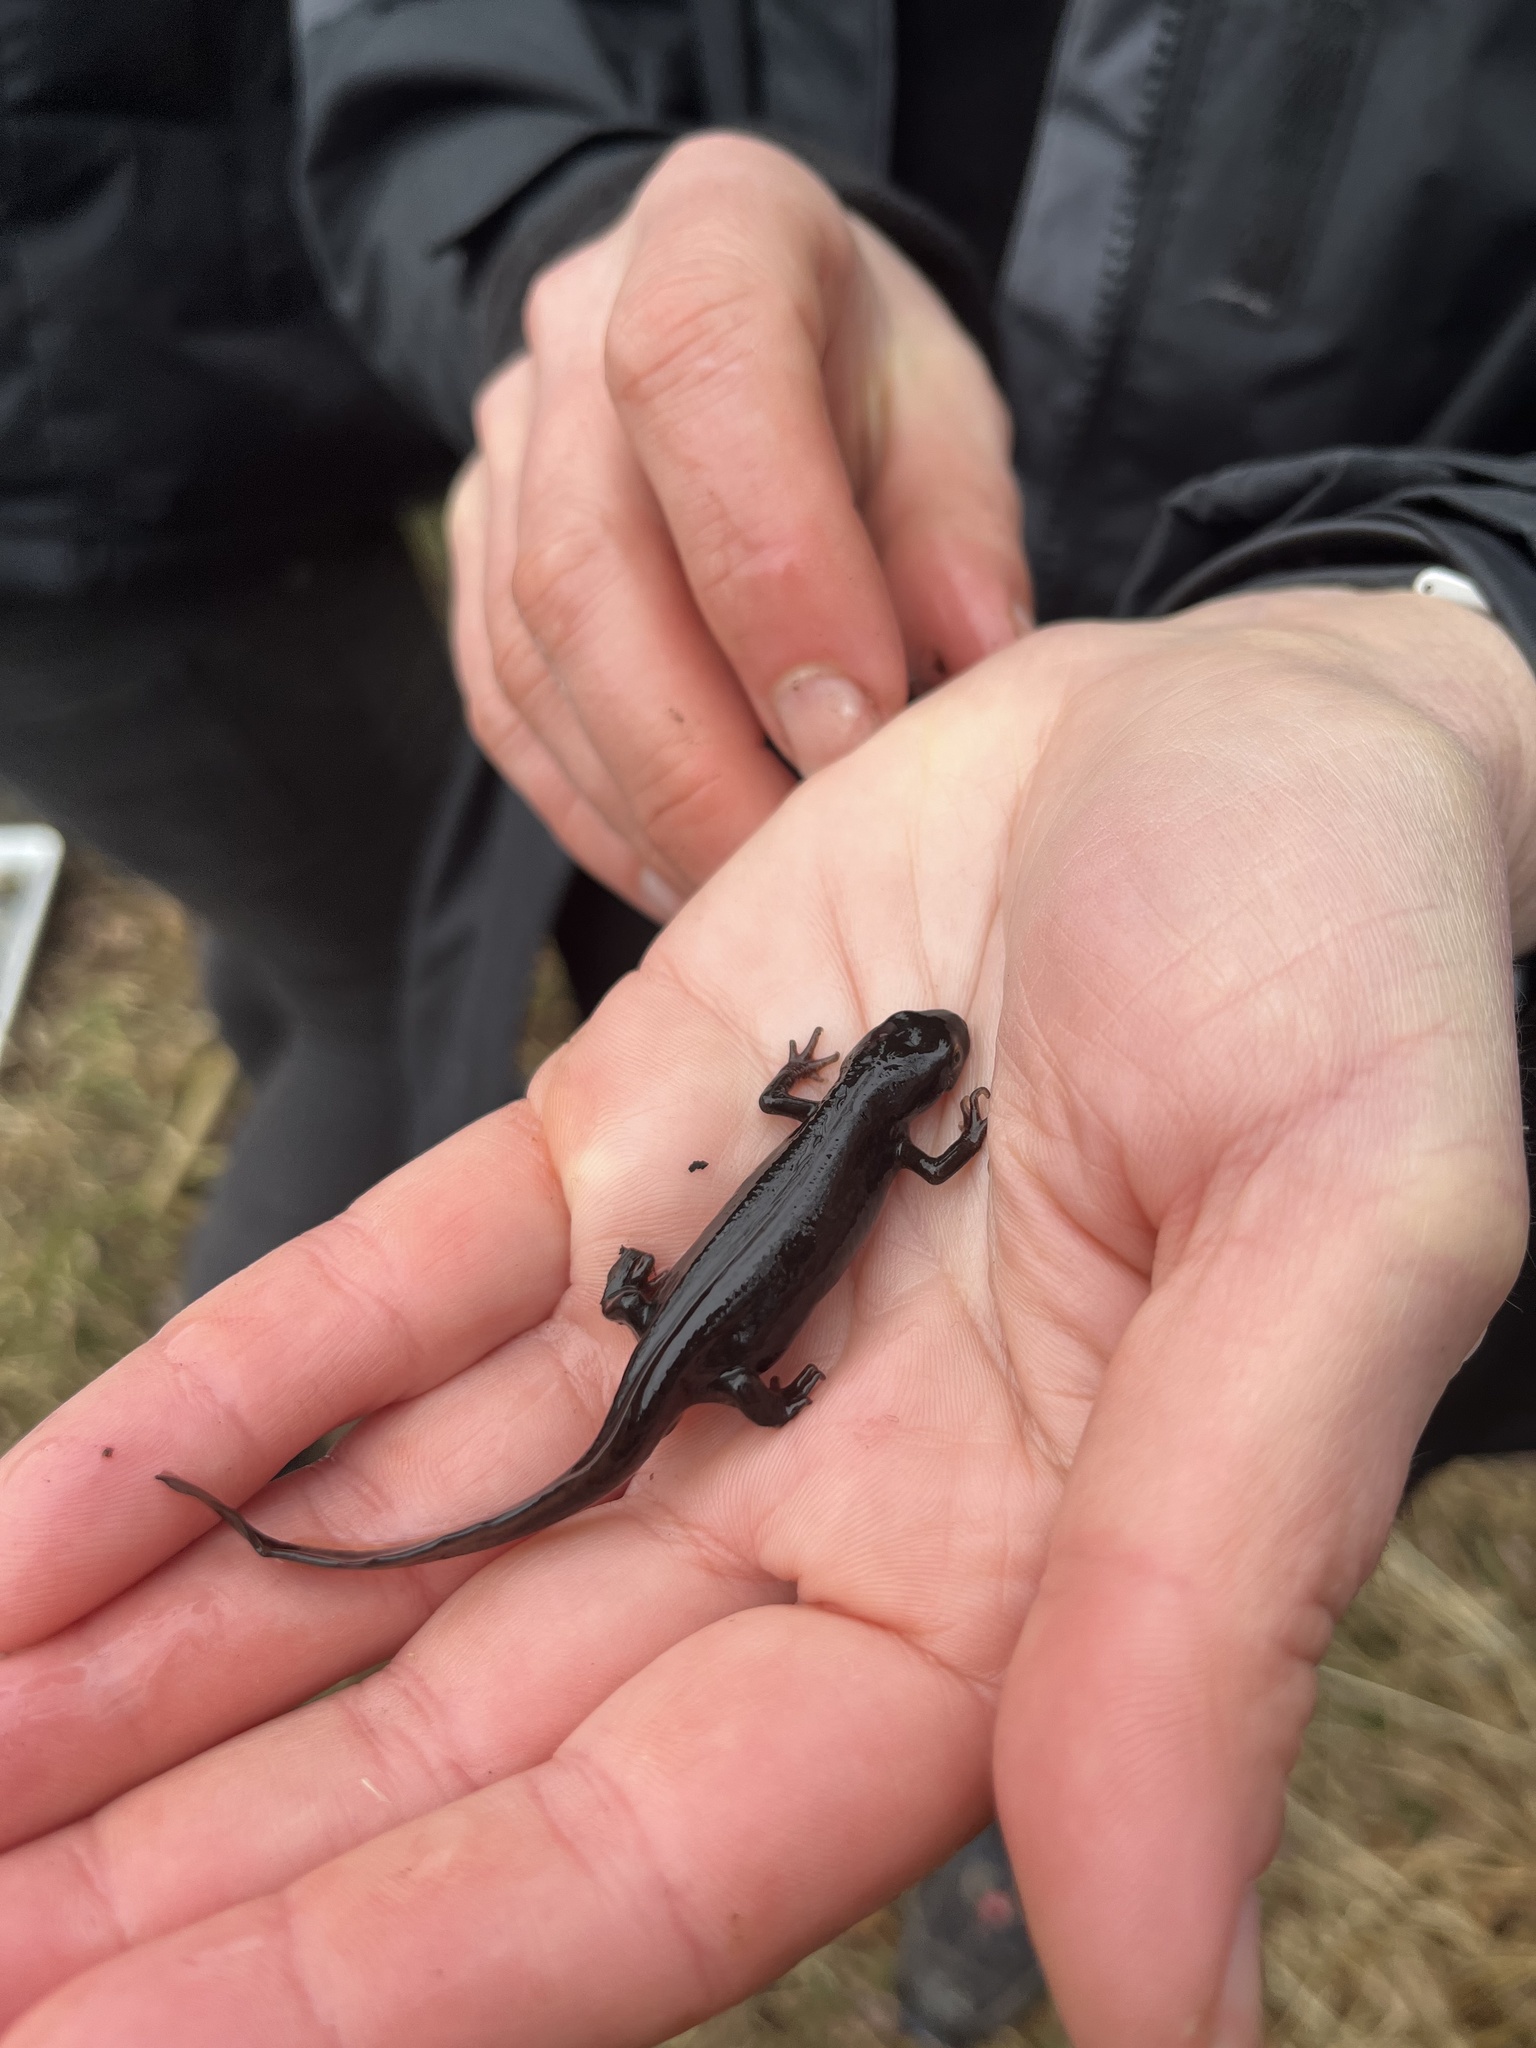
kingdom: Animalia
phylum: Chordata
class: Amphibia
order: Caudata
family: Salamandridae
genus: Lissotriton
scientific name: Lissotriton helveticus
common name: Palmate newt
